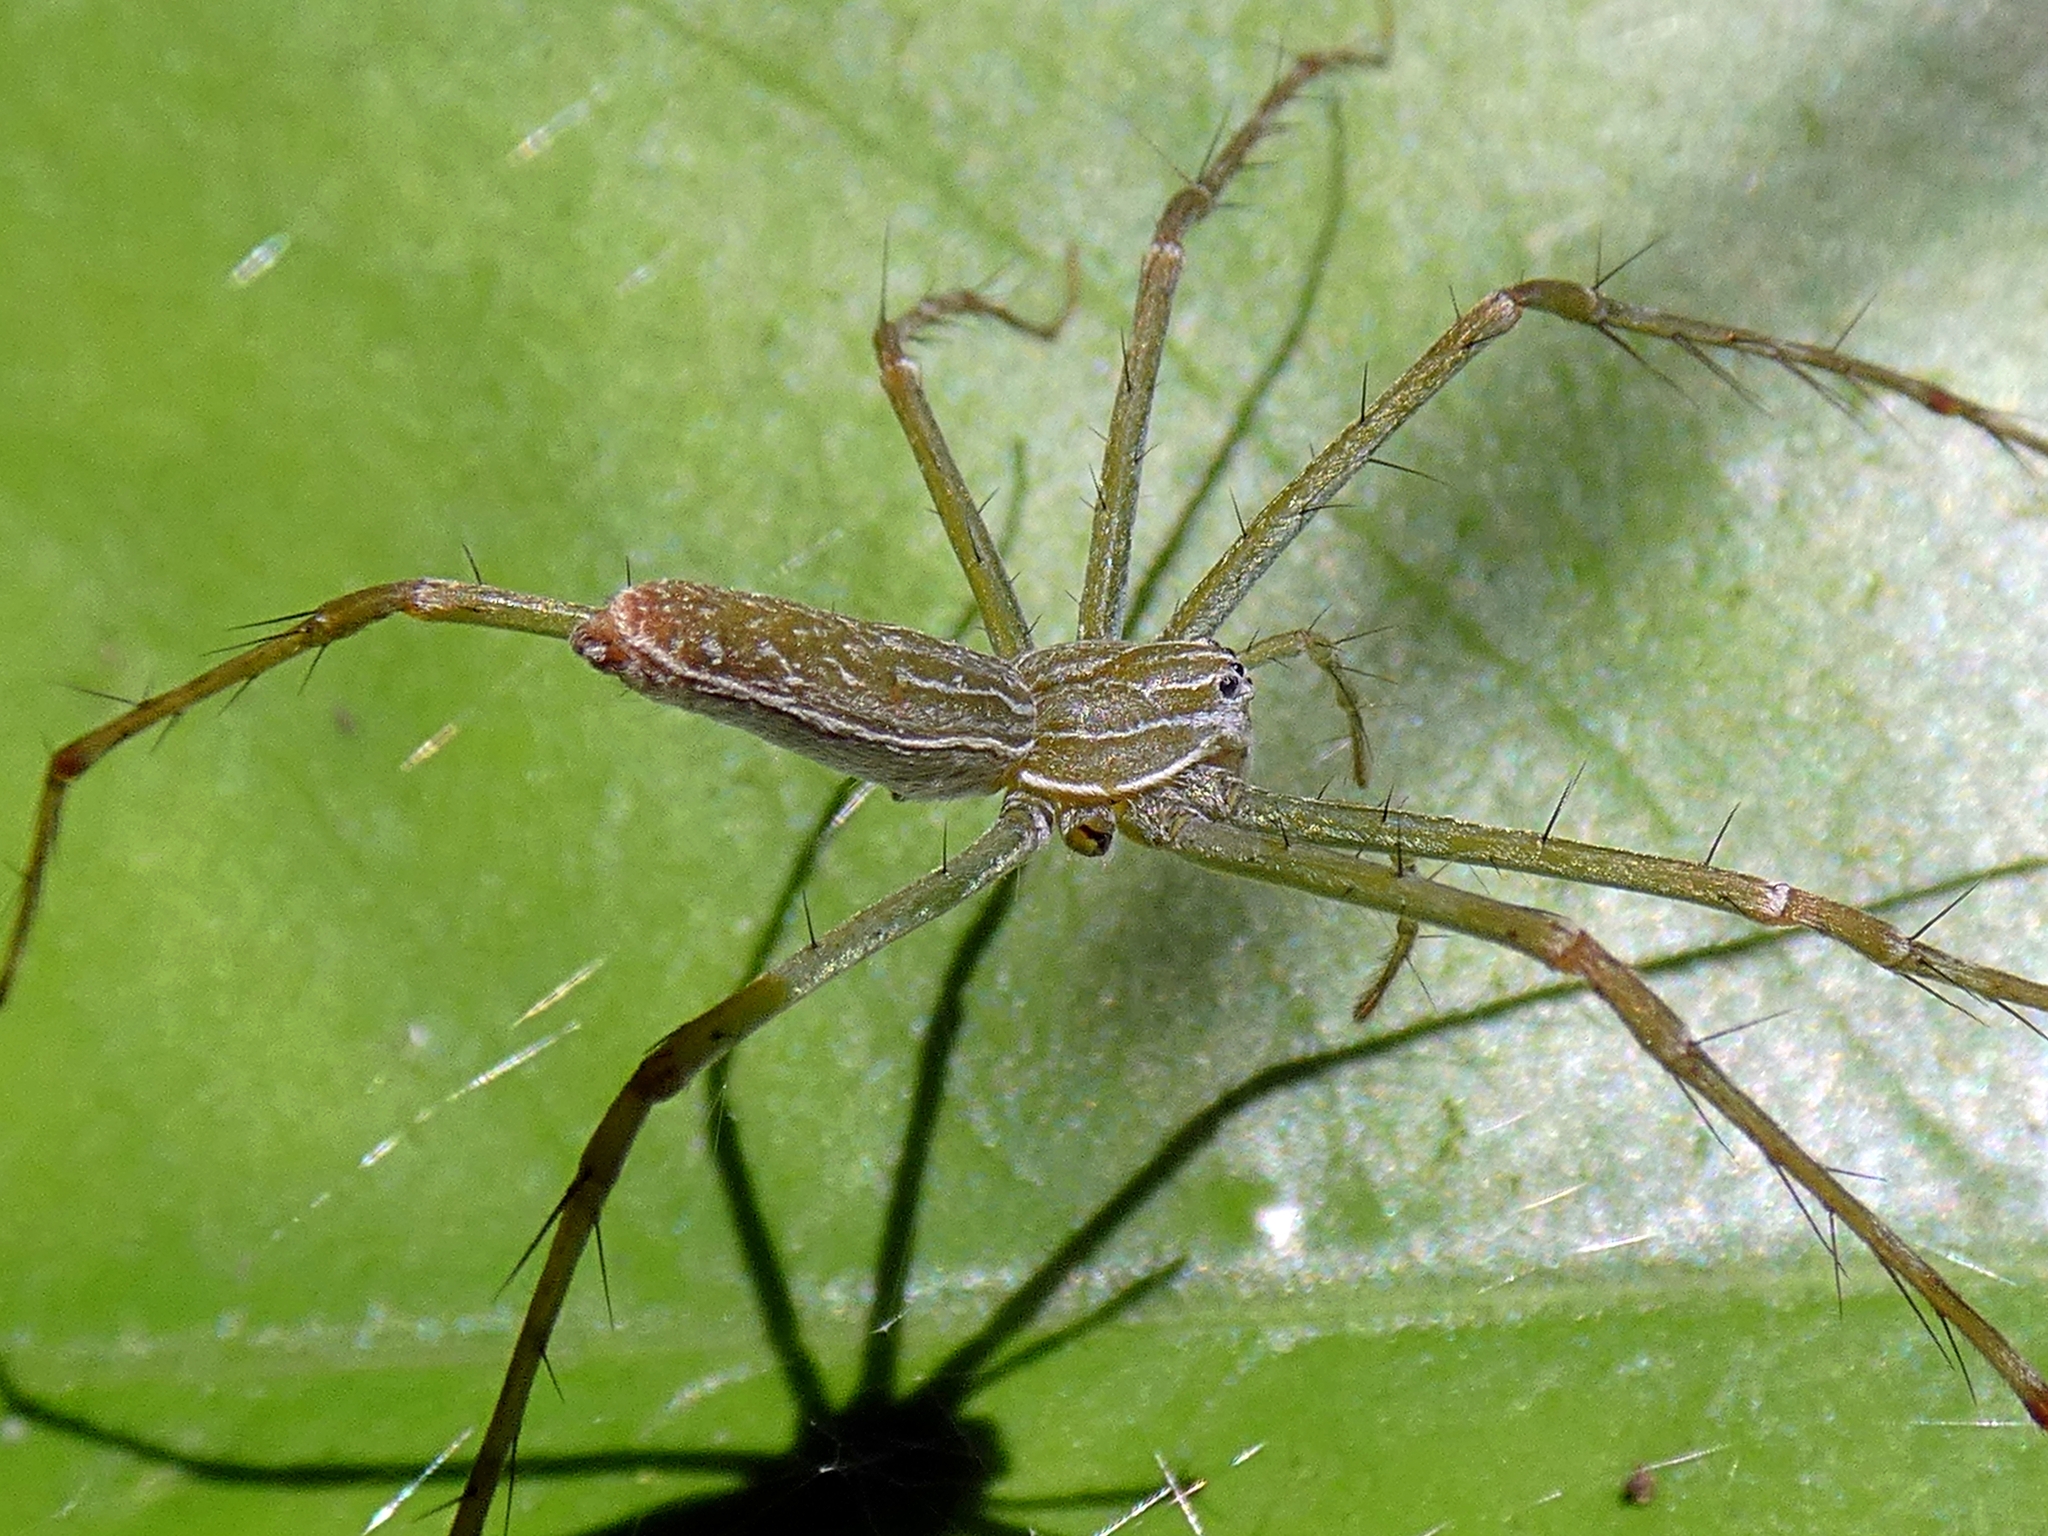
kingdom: Animalia
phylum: Arthropoda
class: Arachnida
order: Araneae
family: Pisauridae
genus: Hygropoda
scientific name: Hygropoda lineata
